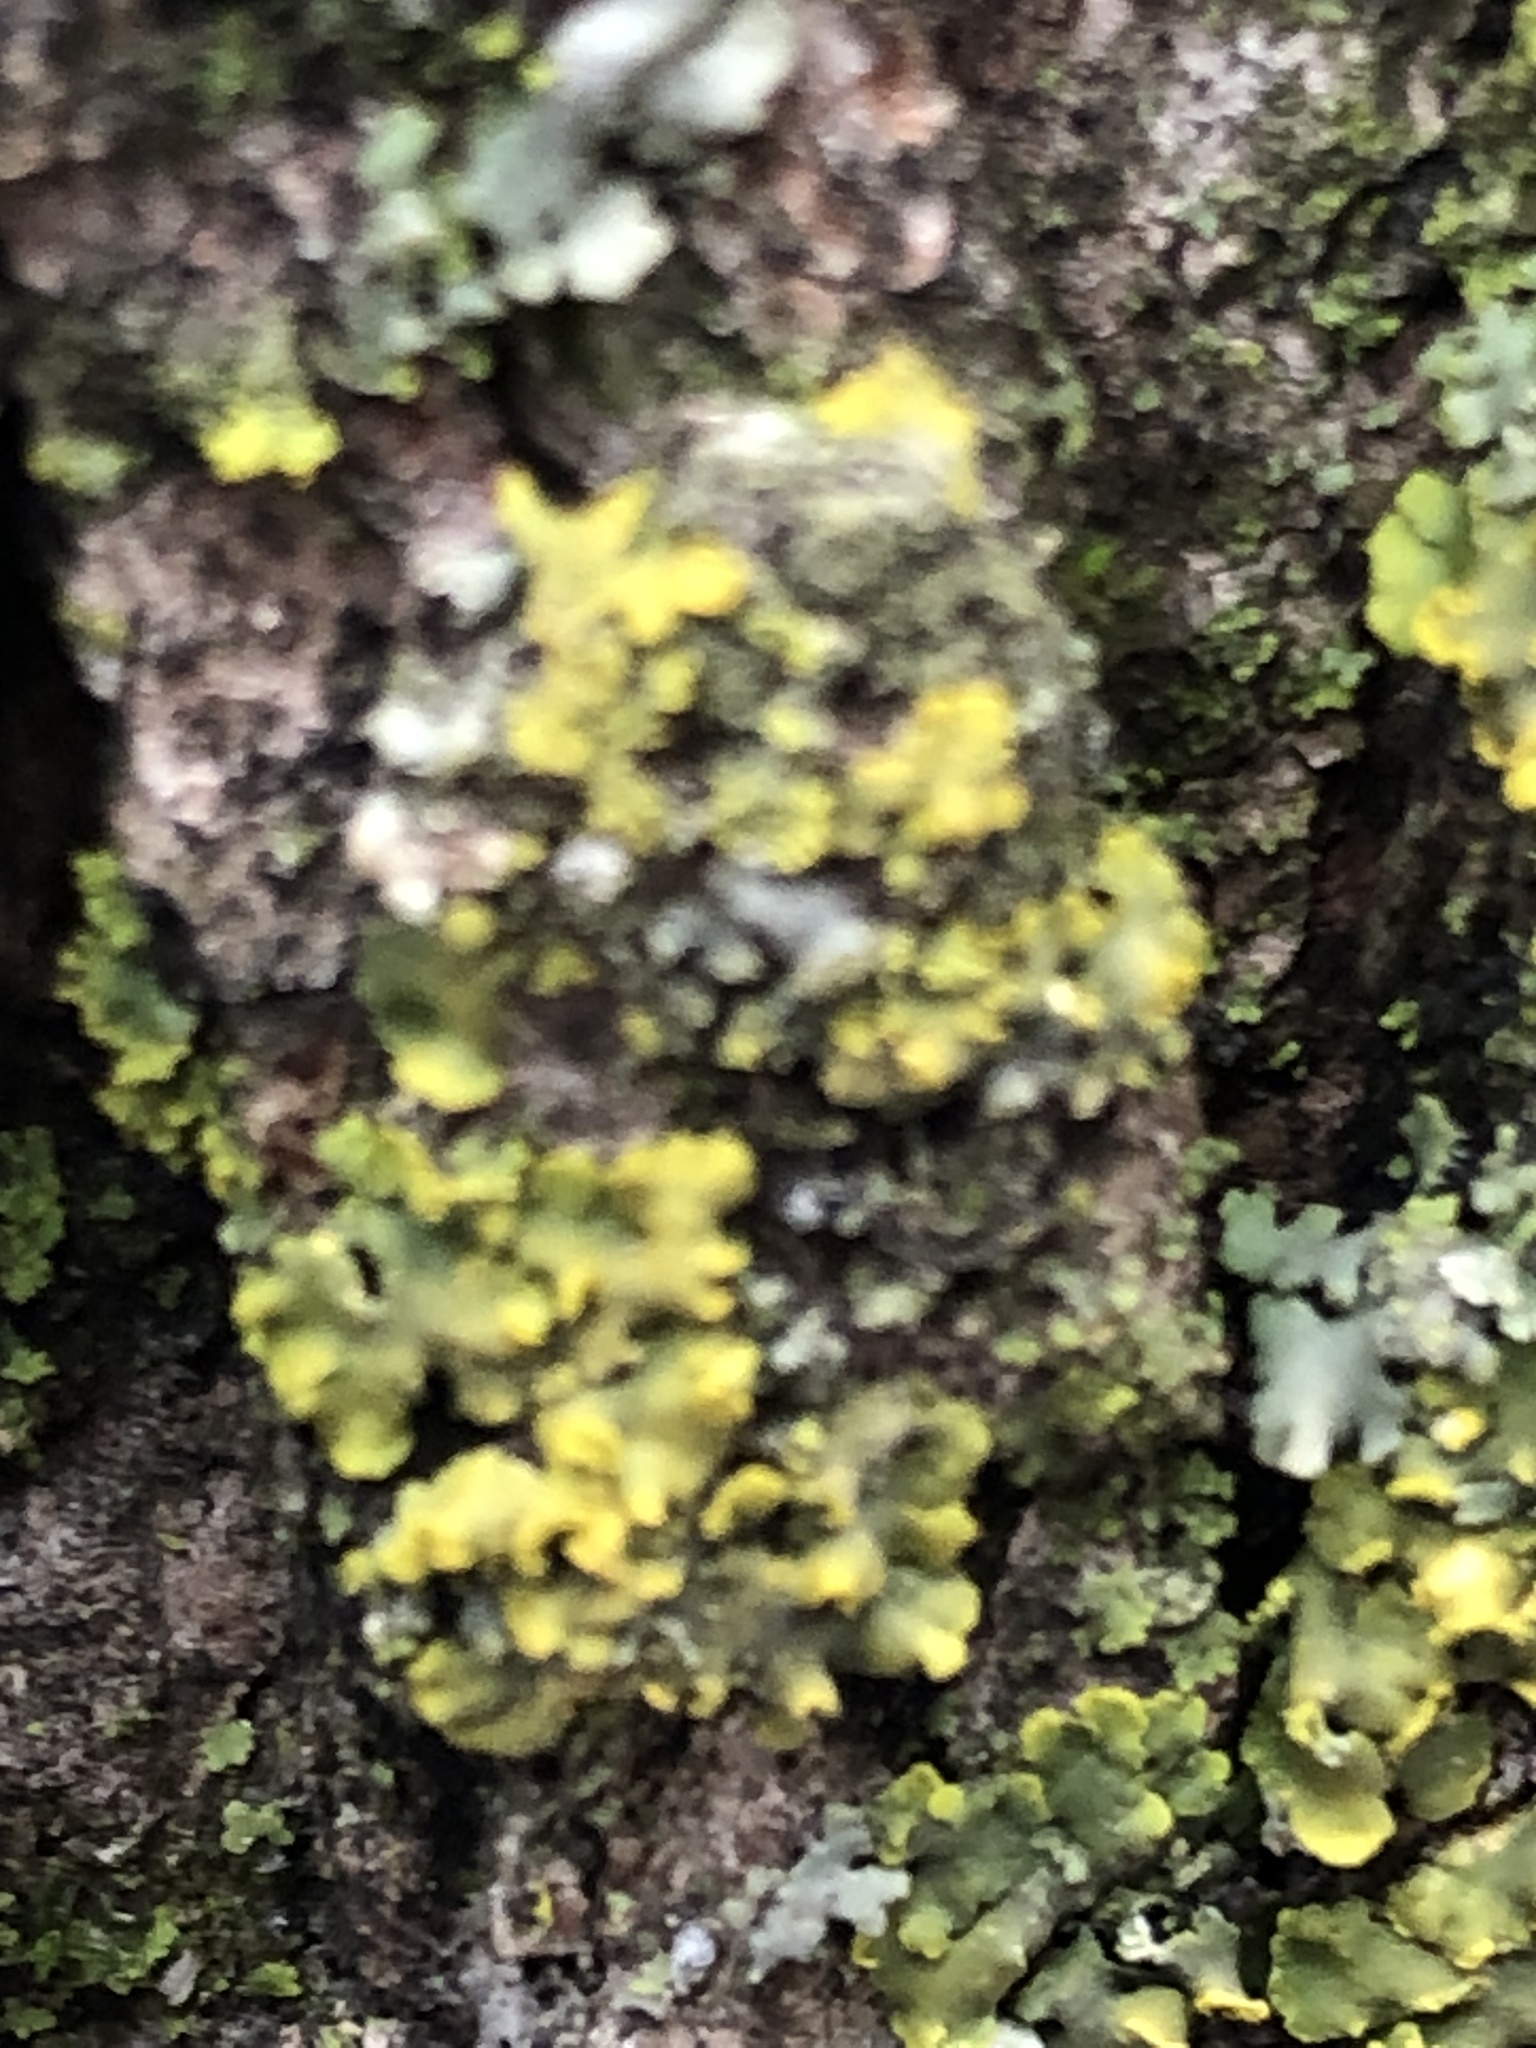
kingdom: Fungi
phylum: Ascomycota
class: Lecanoromycetes
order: Teloschistales
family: Teloschistaceae
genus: Oxneria
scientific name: Oxneria fallax
